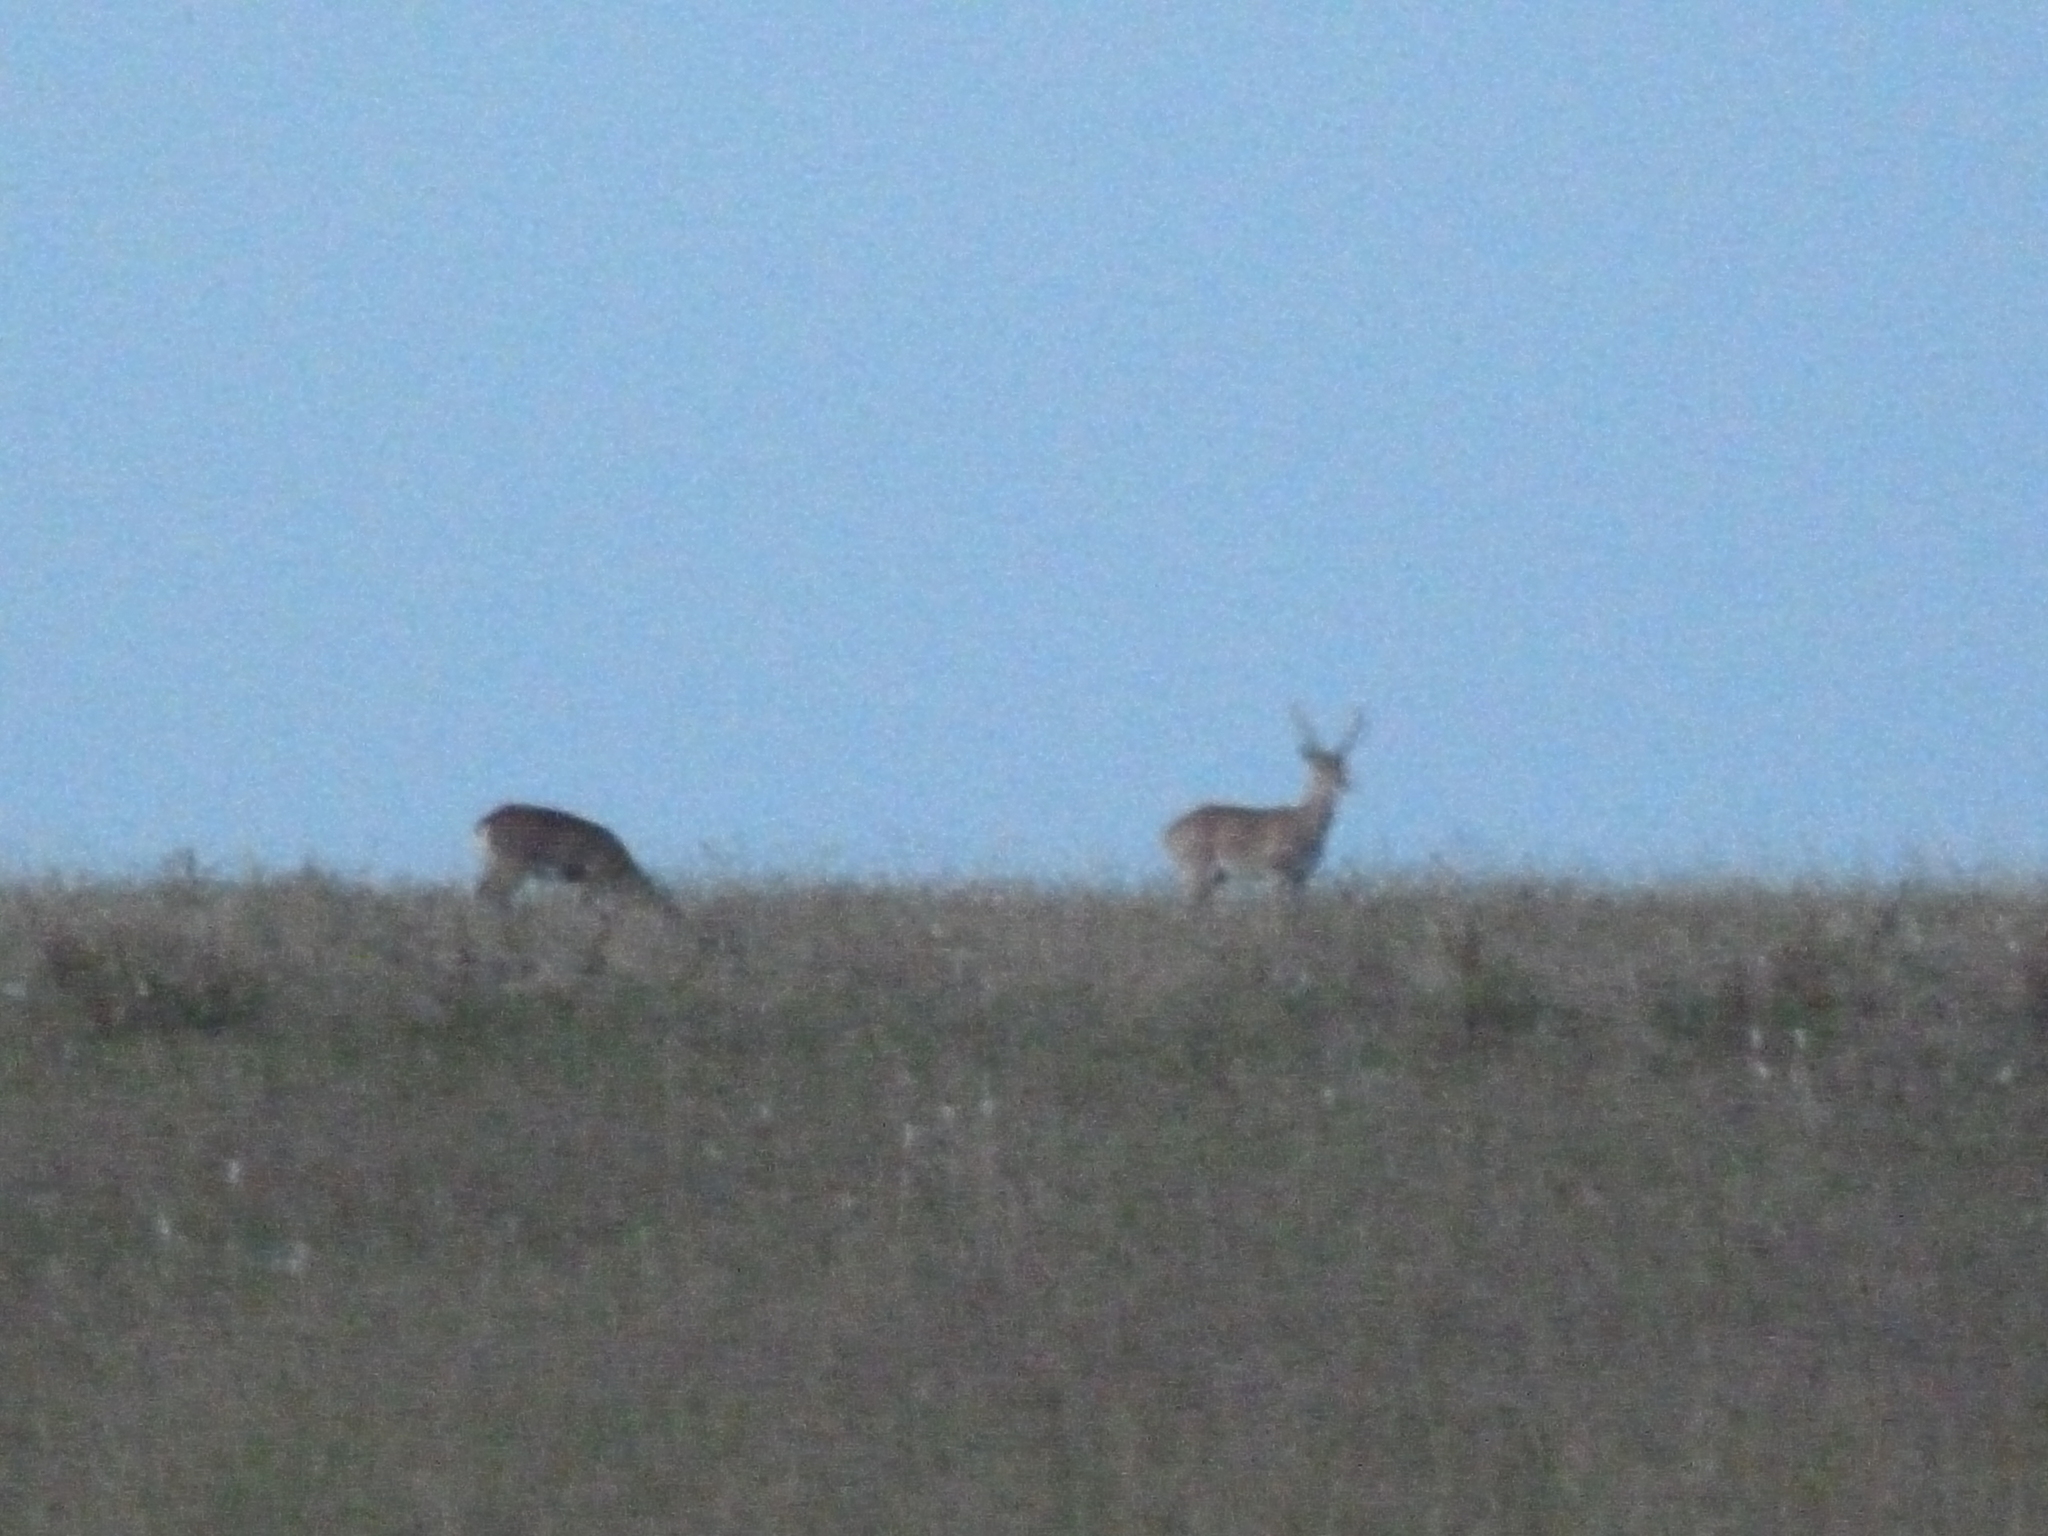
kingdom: Animalia
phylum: Chordata
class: Mammalia
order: Artiodactyla
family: Cervidae
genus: Ozotoceros
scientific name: Ozotoceros bezoarticus
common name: Pampas deer
